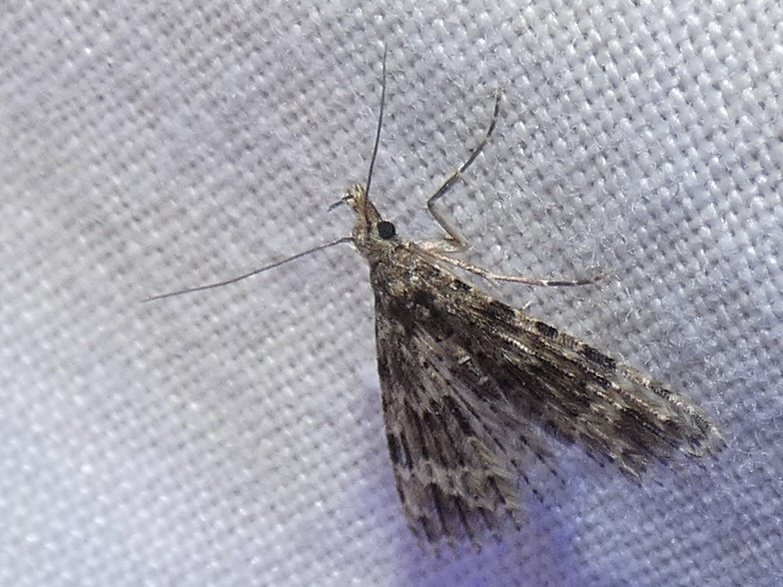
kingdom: Animalia
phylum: Arthropoda
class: Insecta
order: Lepidoptera
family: Alucitidae
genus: Alucita
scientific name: Alucita hexadactyla
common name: Twenty-plume moth
